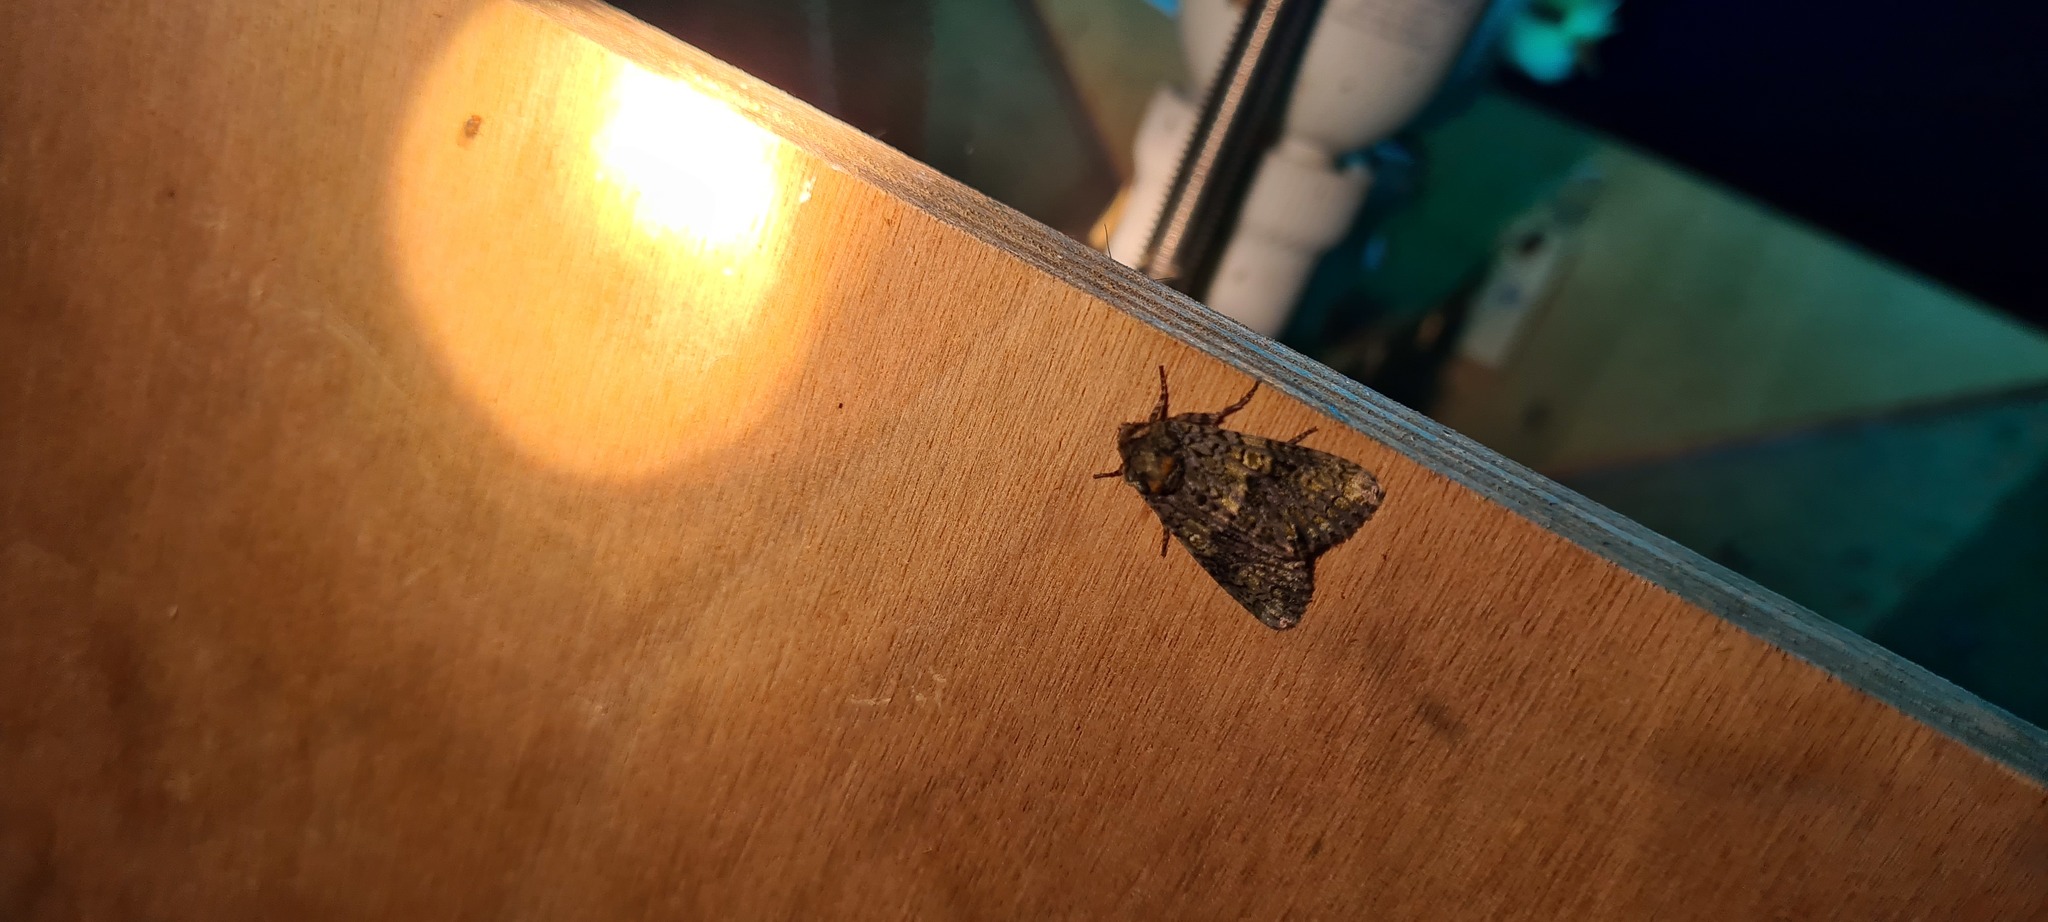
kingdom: Animalia
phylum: Arthropoda
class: Insecta
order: Lepidoptera
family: Noctuidae
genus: Craniophora
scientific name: Craniophora ligustri
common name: Coronet
